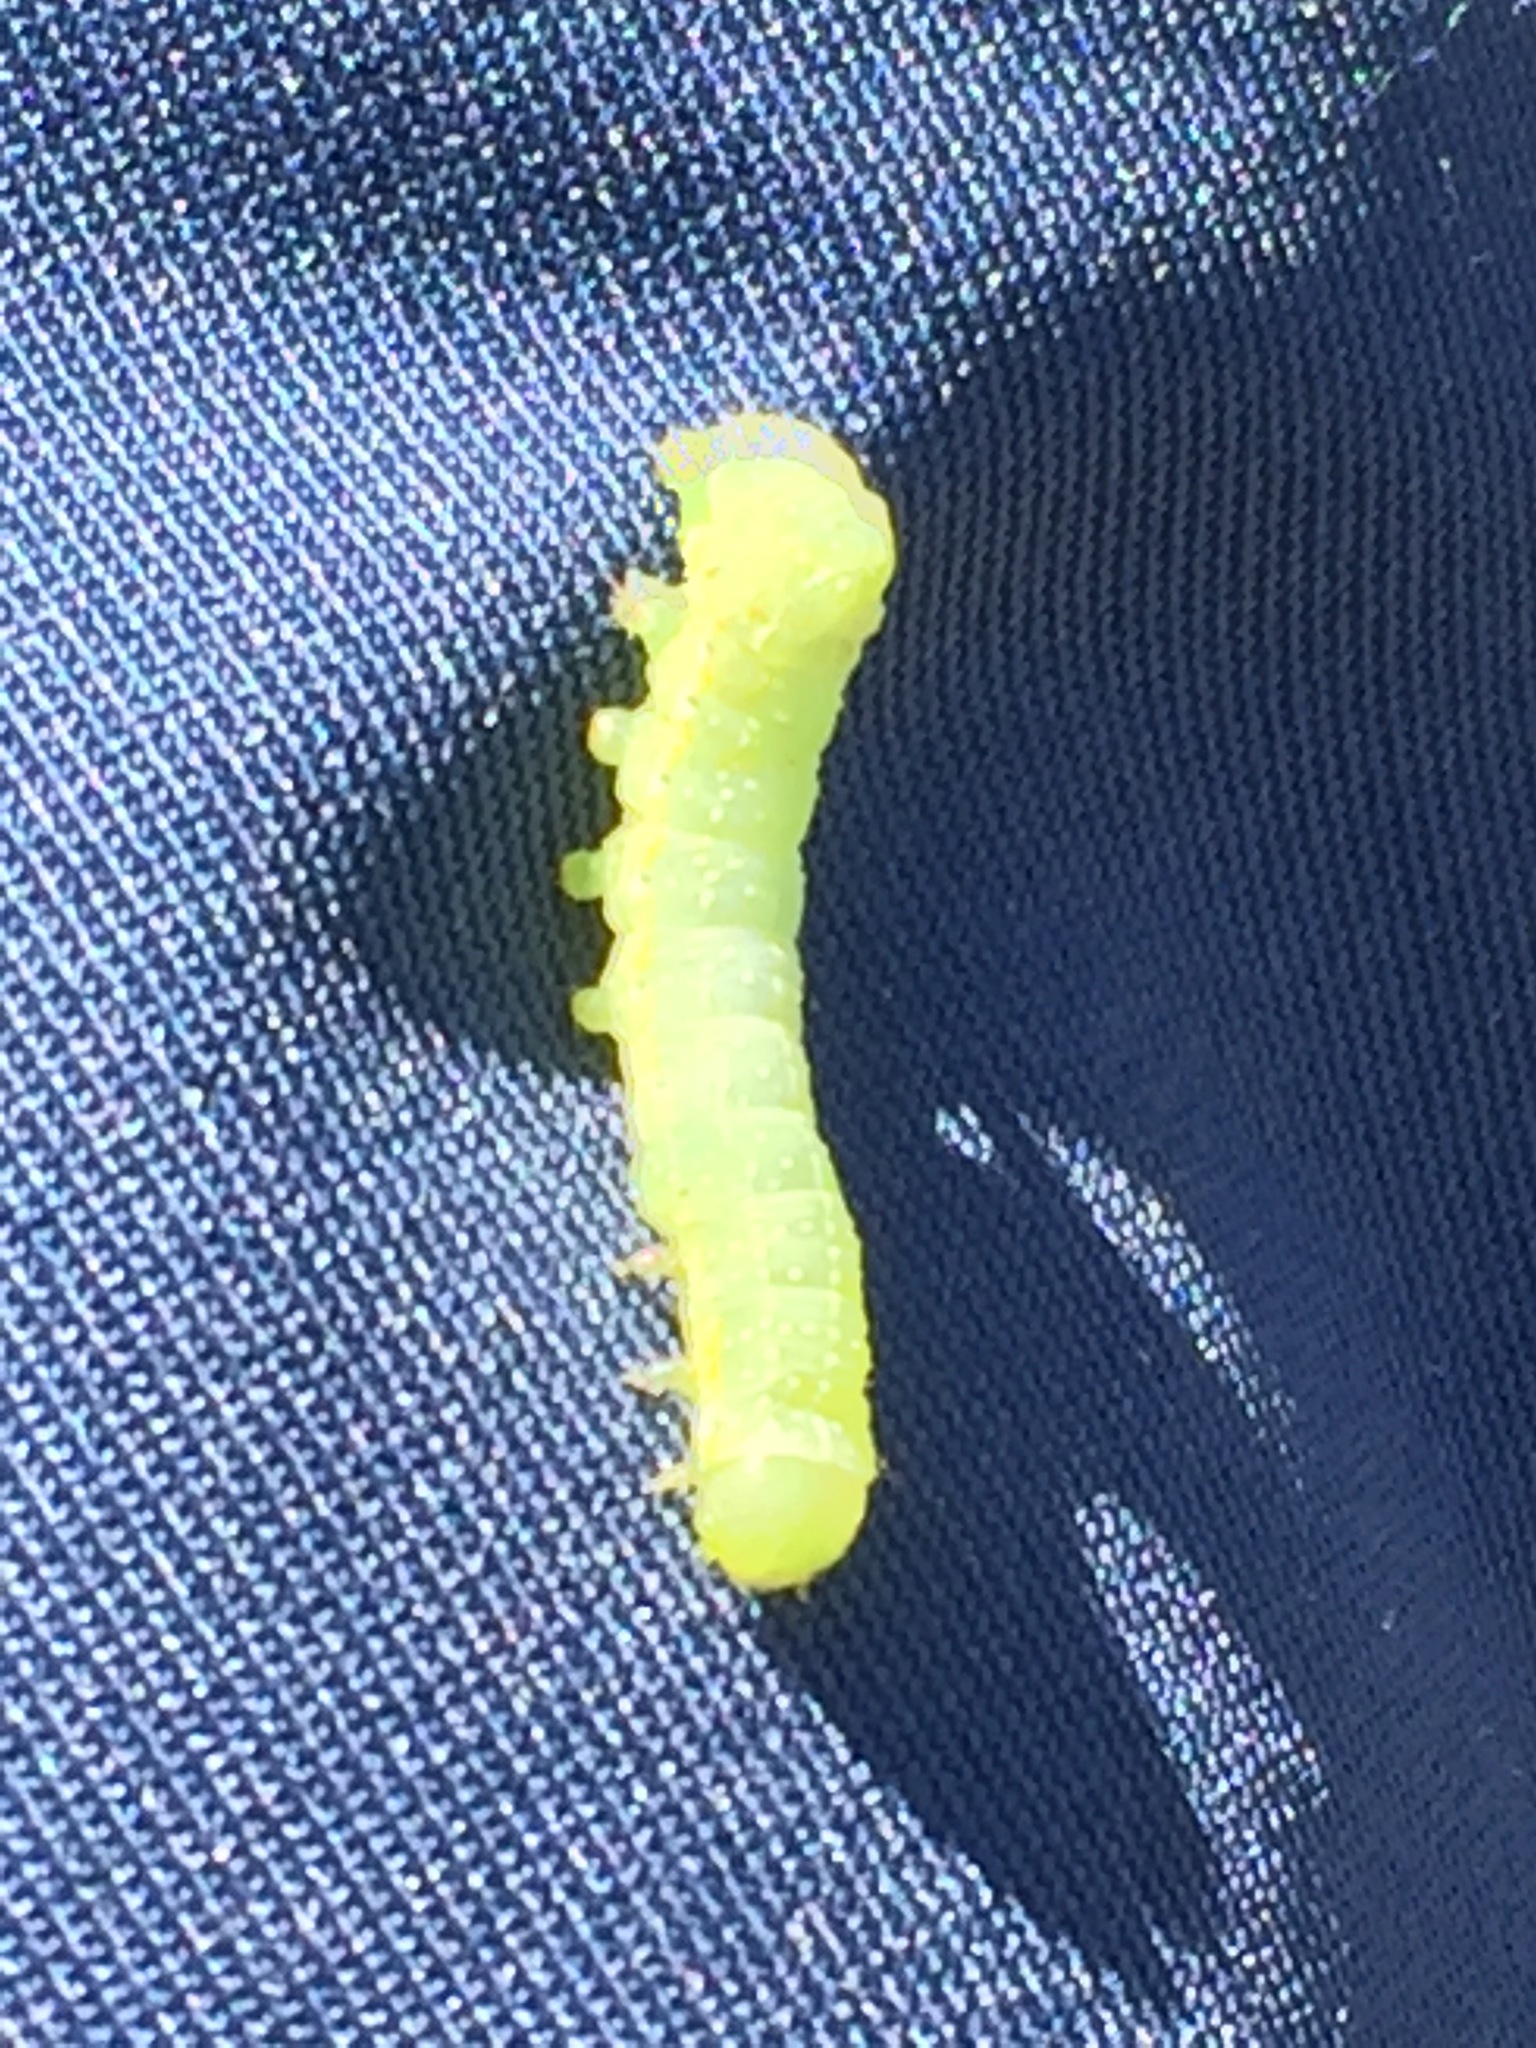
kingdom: Animalia
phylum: Arthropoda
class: Insecta
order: Lepidoptera
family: Noctuidae
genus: Amphipyra
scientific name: Amphipyra pyramidoides
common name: American copper underwing
